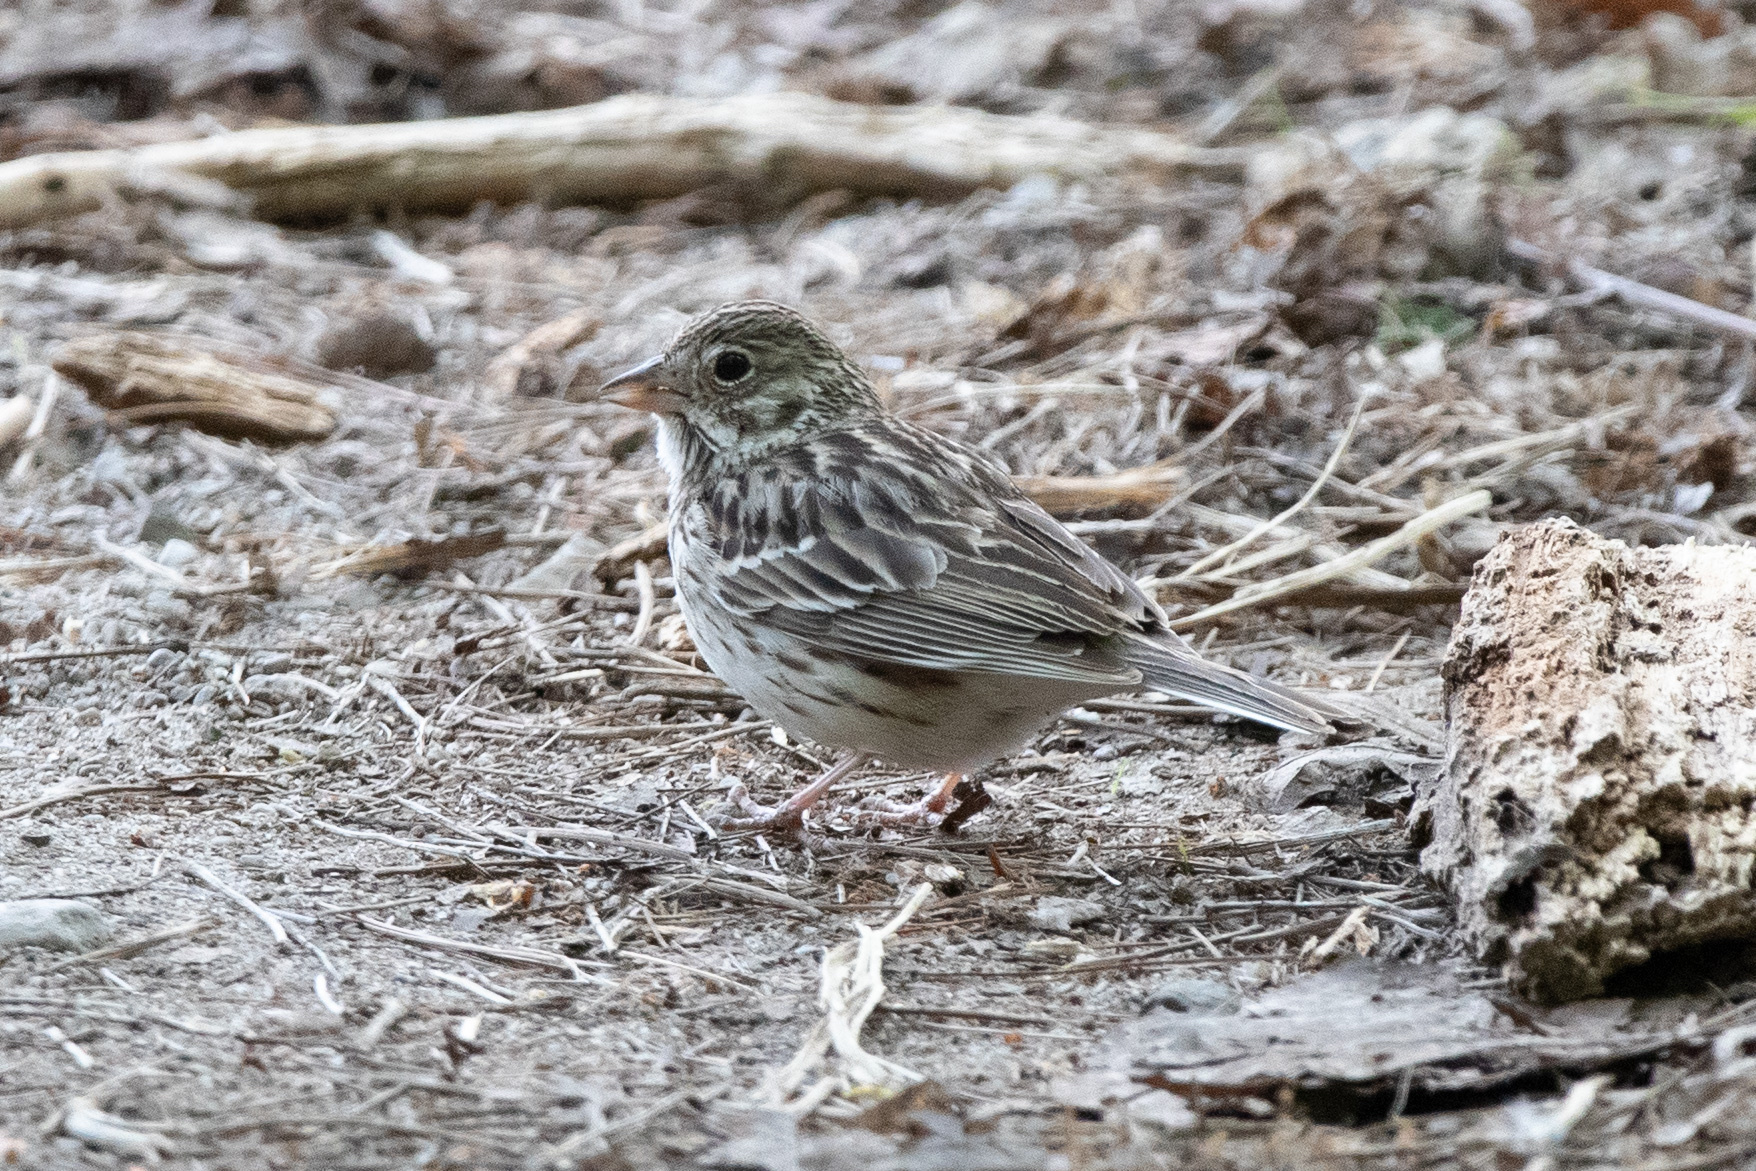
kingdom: Animalia
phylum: Chordata
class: Aves
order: Passeriformes
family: Passerellidae
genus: Pooecetes
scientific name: Pooecetes gramineus
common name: Vesper sparrow
